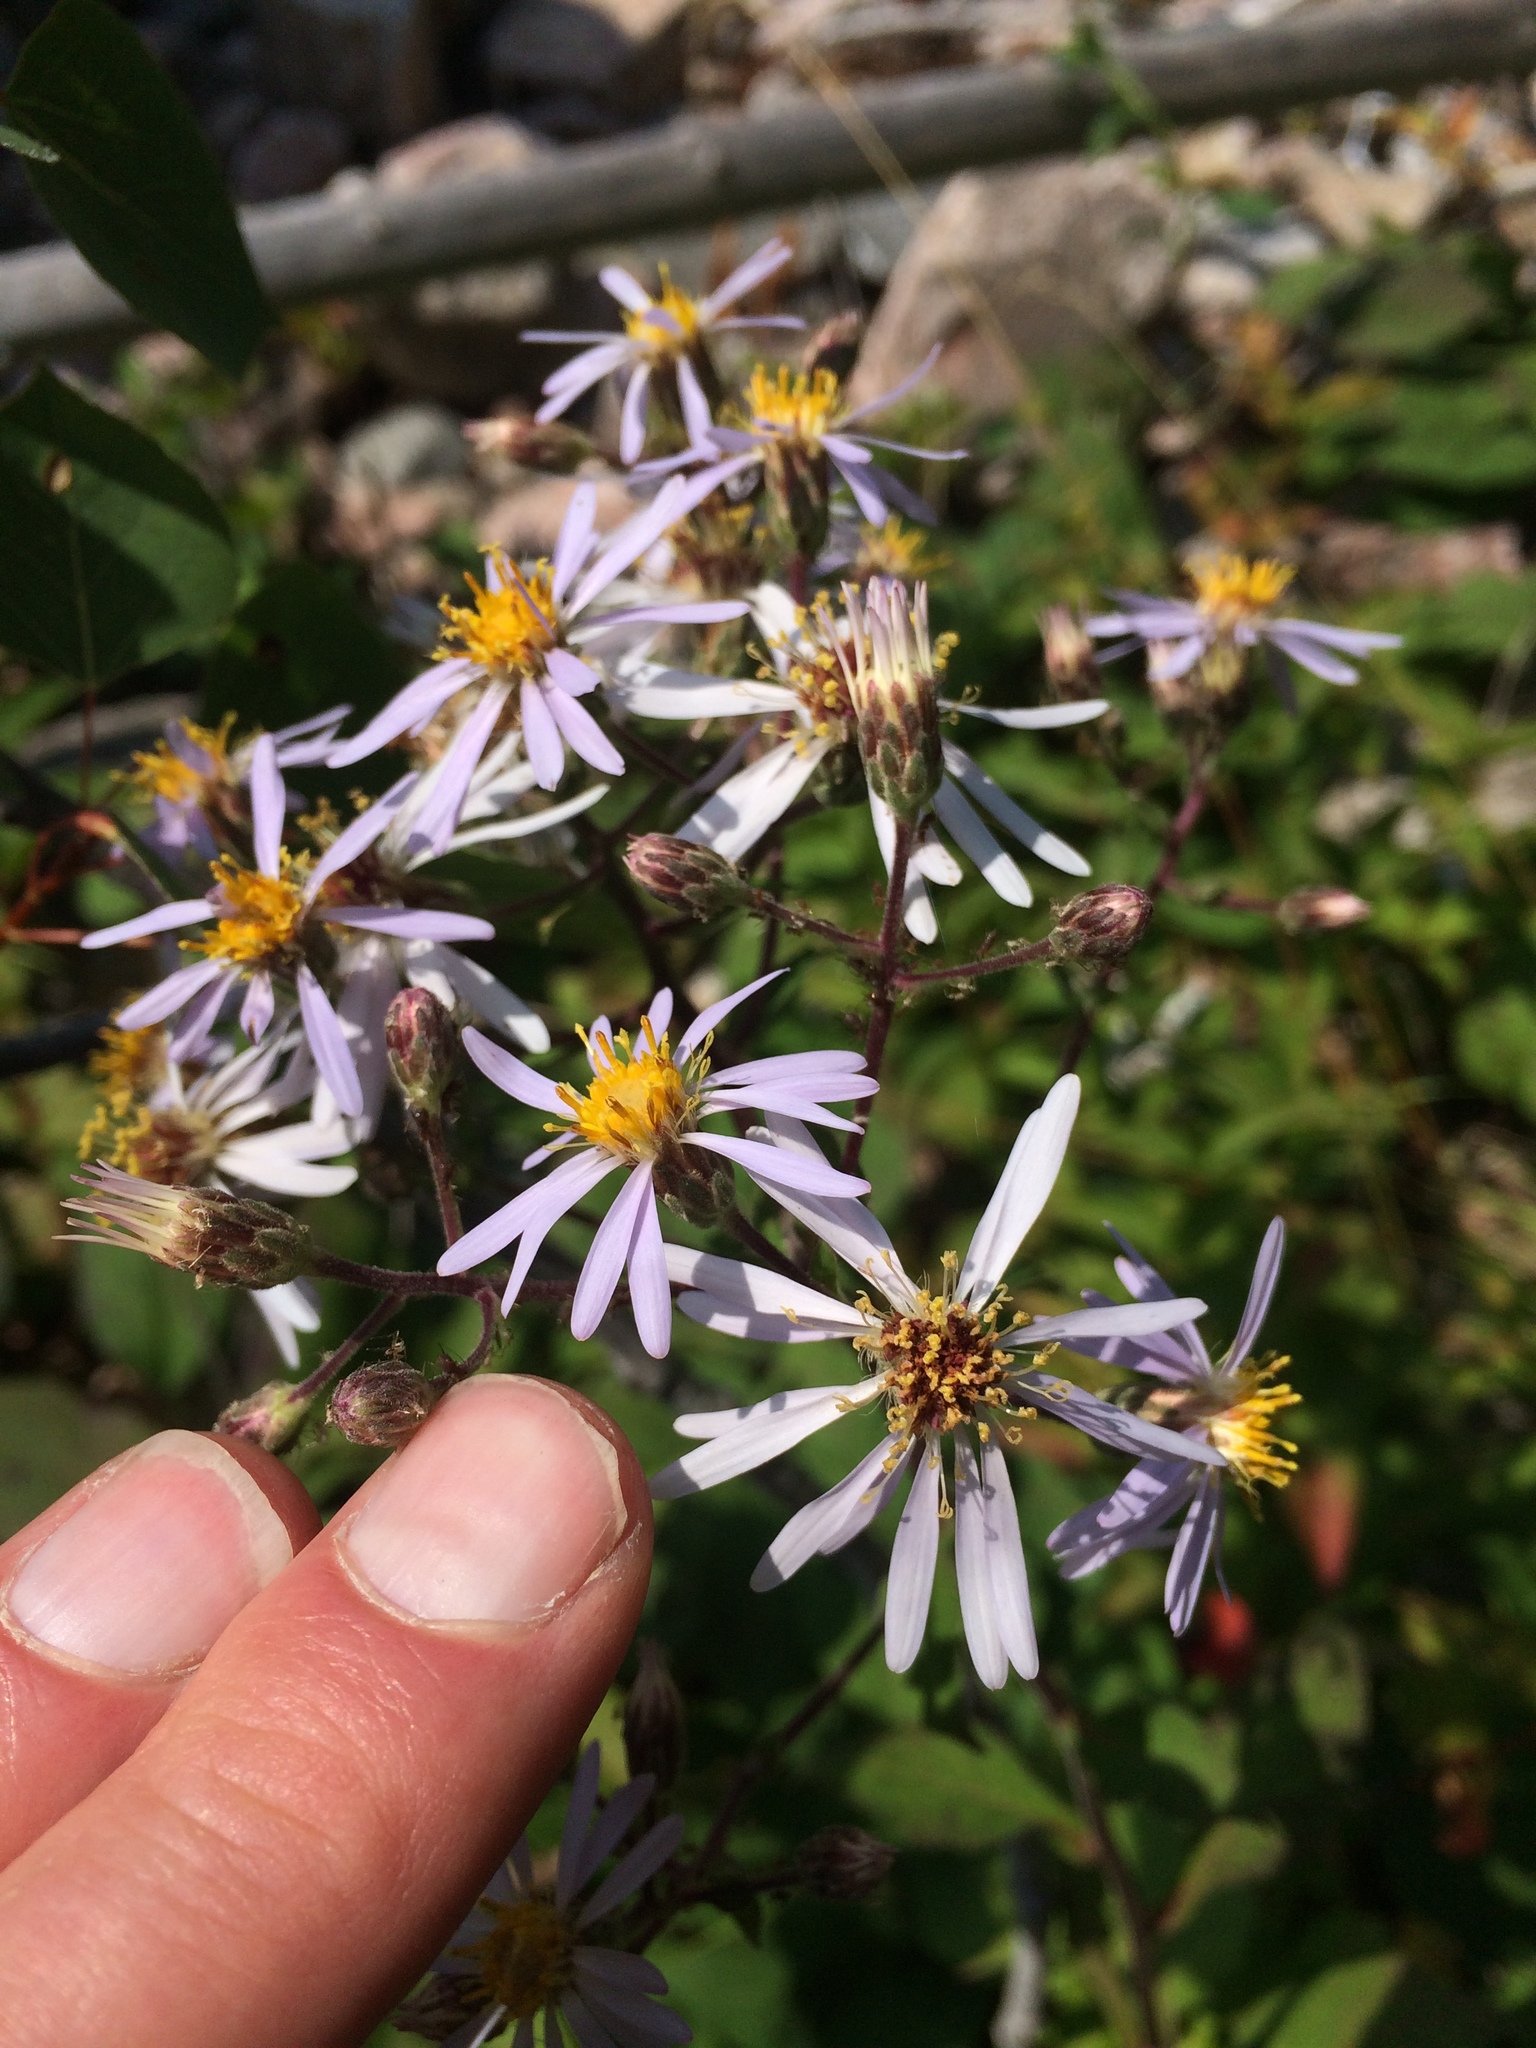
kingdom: Plantae
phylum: Tracheophyta
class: Magnoliopsida
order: Asterales
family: Asteraceae
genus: Eurybia
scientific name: Eurybia macrophylla
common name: Big-leaved aster
